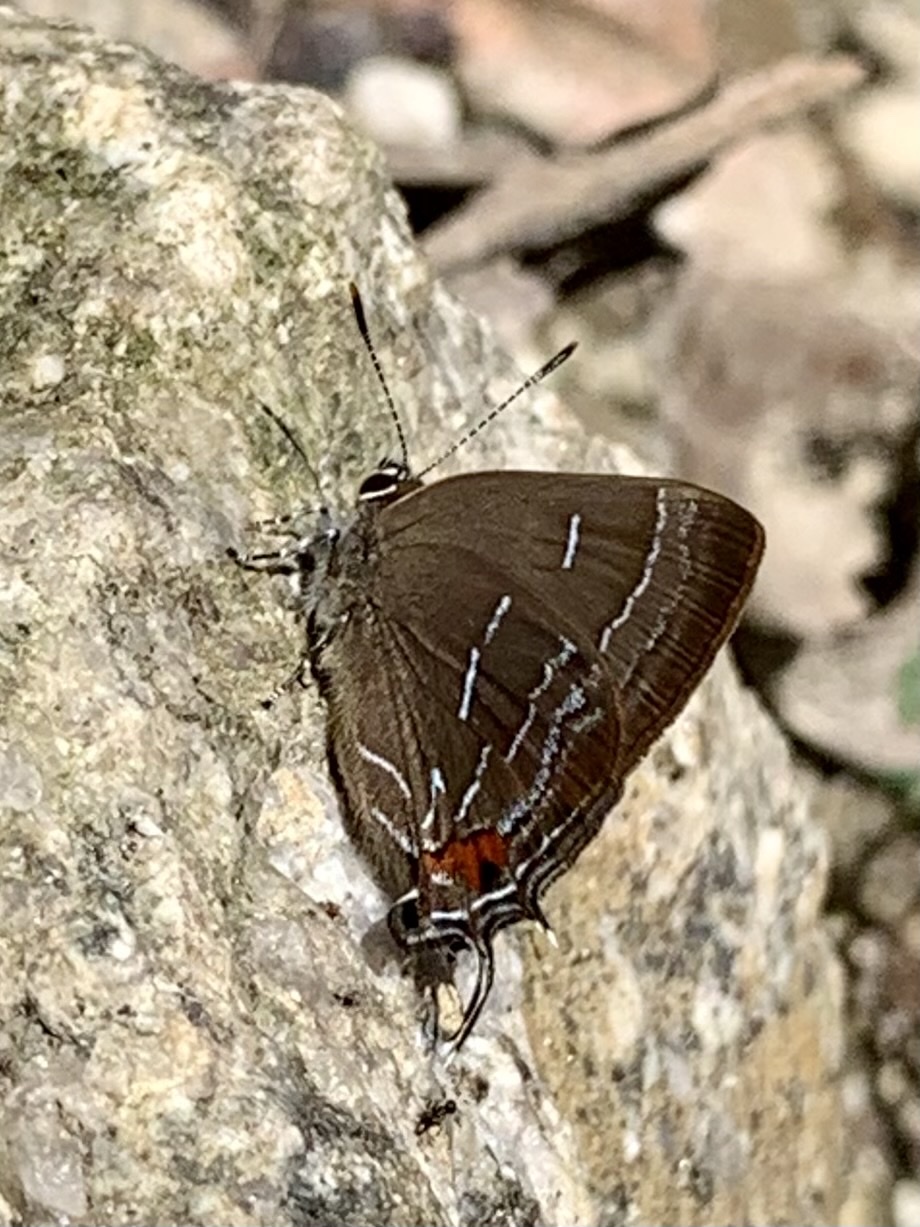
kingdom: Animalia
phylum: Arthropoda
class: Insecta
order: Lepidoptera
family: Lycaenidae
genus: Ocaria
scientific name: Ocaria aholiba
